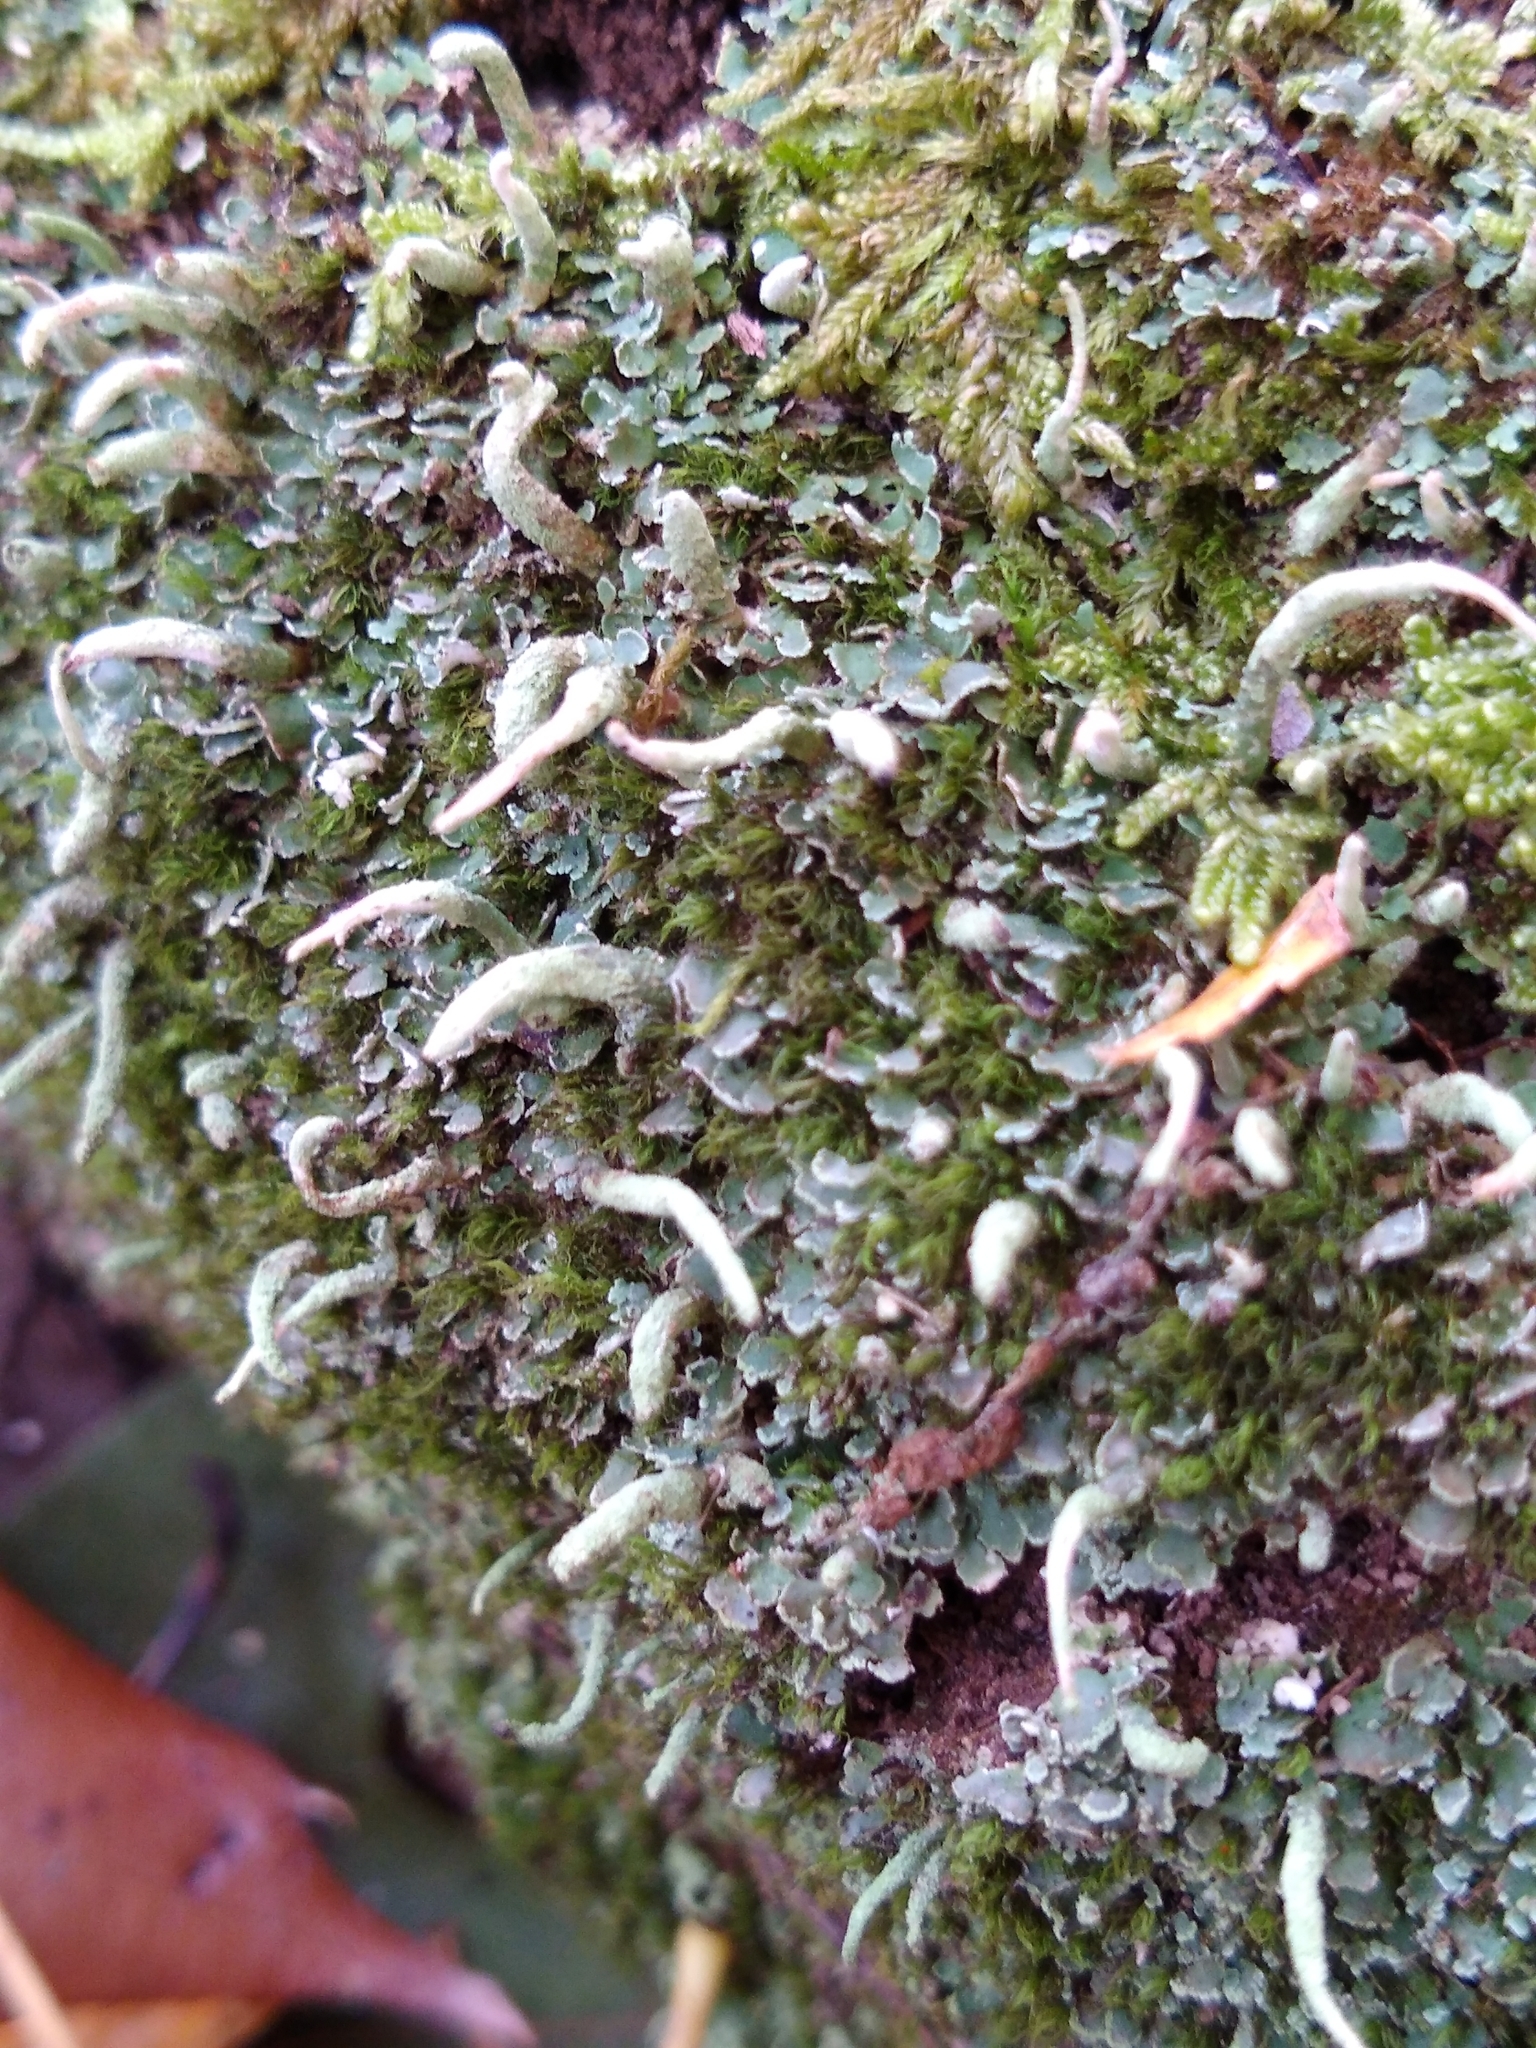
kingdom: Fungi
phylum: Ascomycota
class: Lecanoromycetes
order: Lecanorales
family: Cladoniaceae
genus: Cladonia
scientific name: Cladonia coniocraea
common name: Common powderhorn
